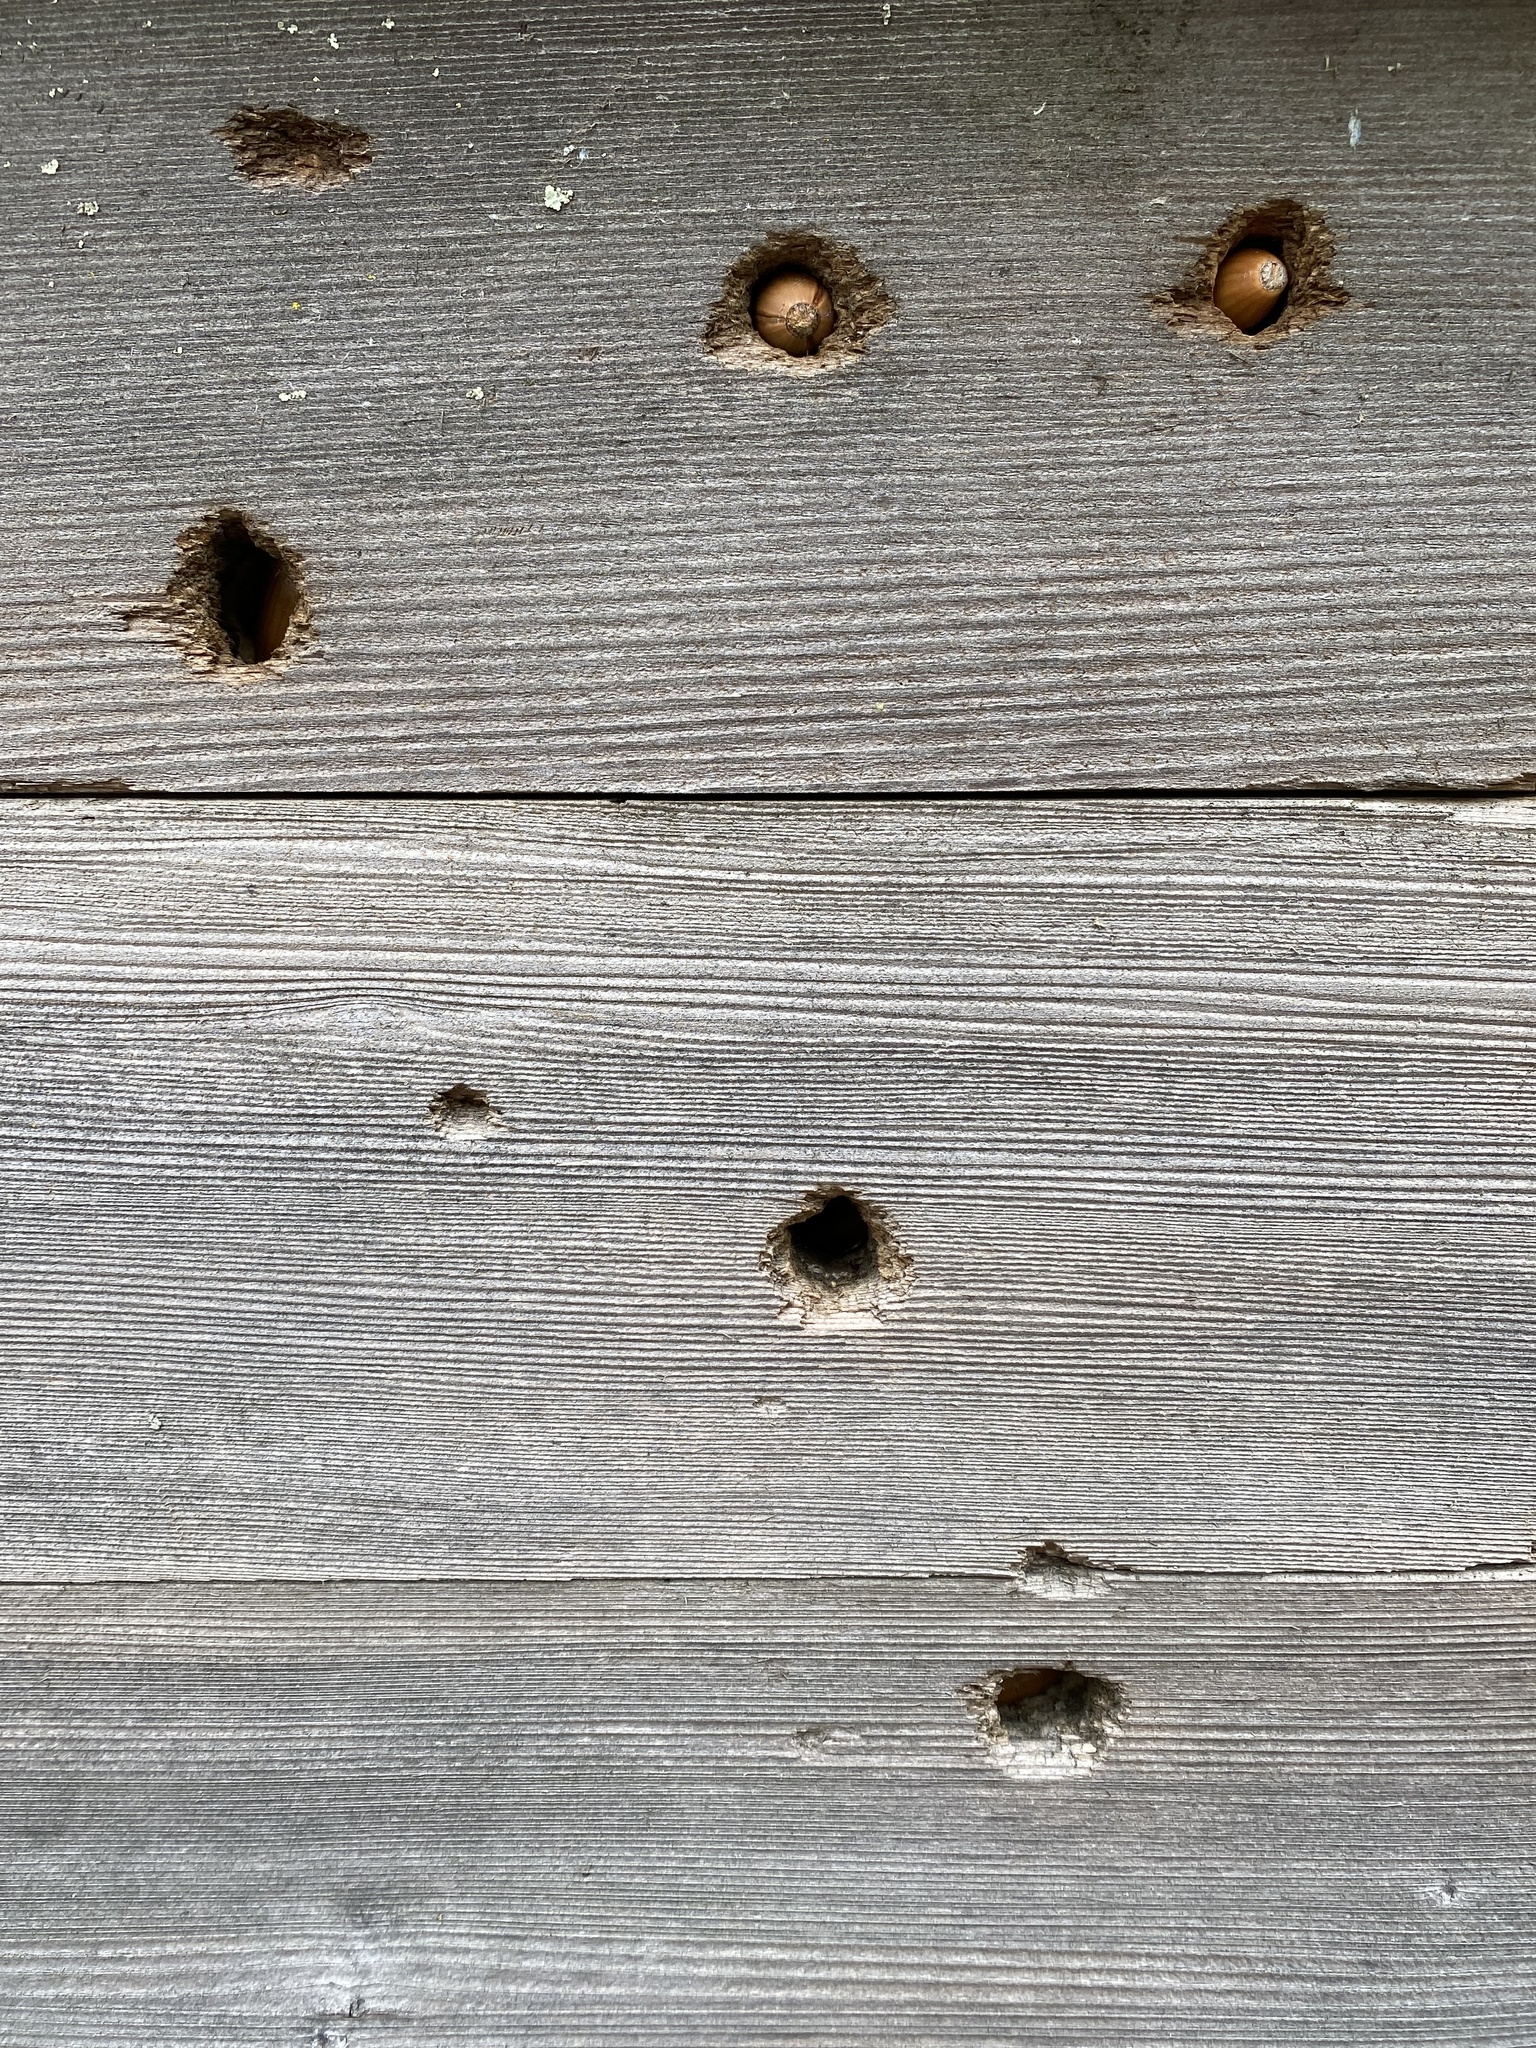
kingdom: Animalia
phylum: Chordata
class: Aves
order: Piciformes
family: Picidae
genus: Melanerpes
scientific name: Melanerpes formicivorus
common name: Acorn woodpecker
